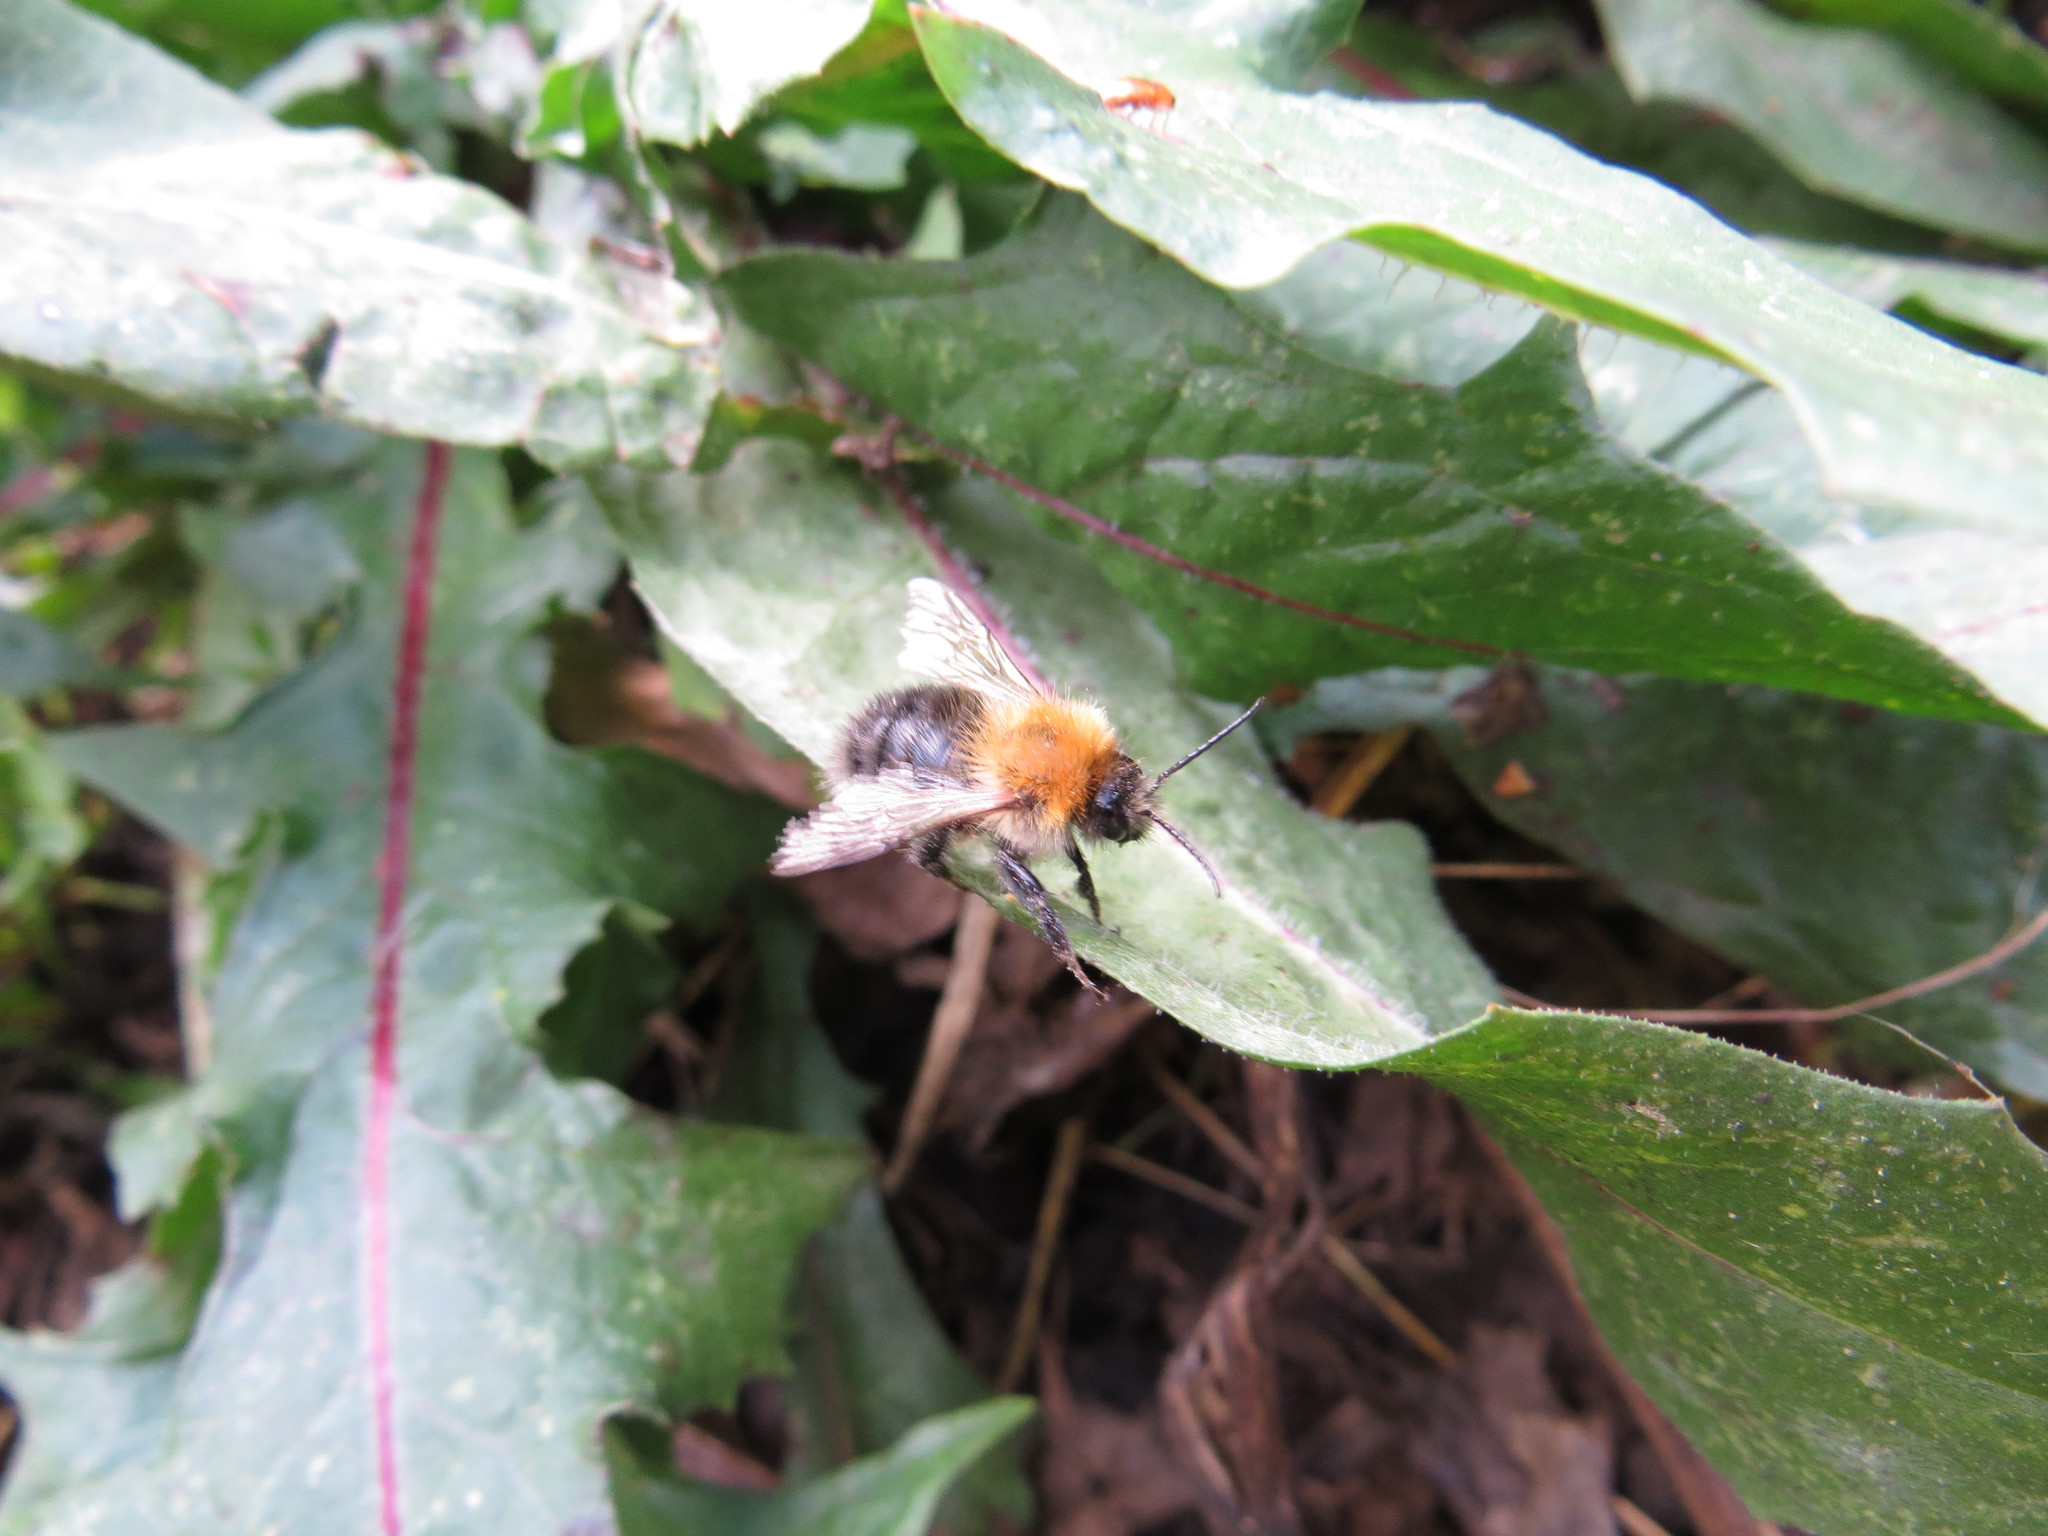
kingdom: Animalia
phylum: Arthropoda
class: Insecta
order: Hymenoptera
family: Apidae
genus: Bombus
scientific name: Bombus pascuorum
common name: Common carder bee
